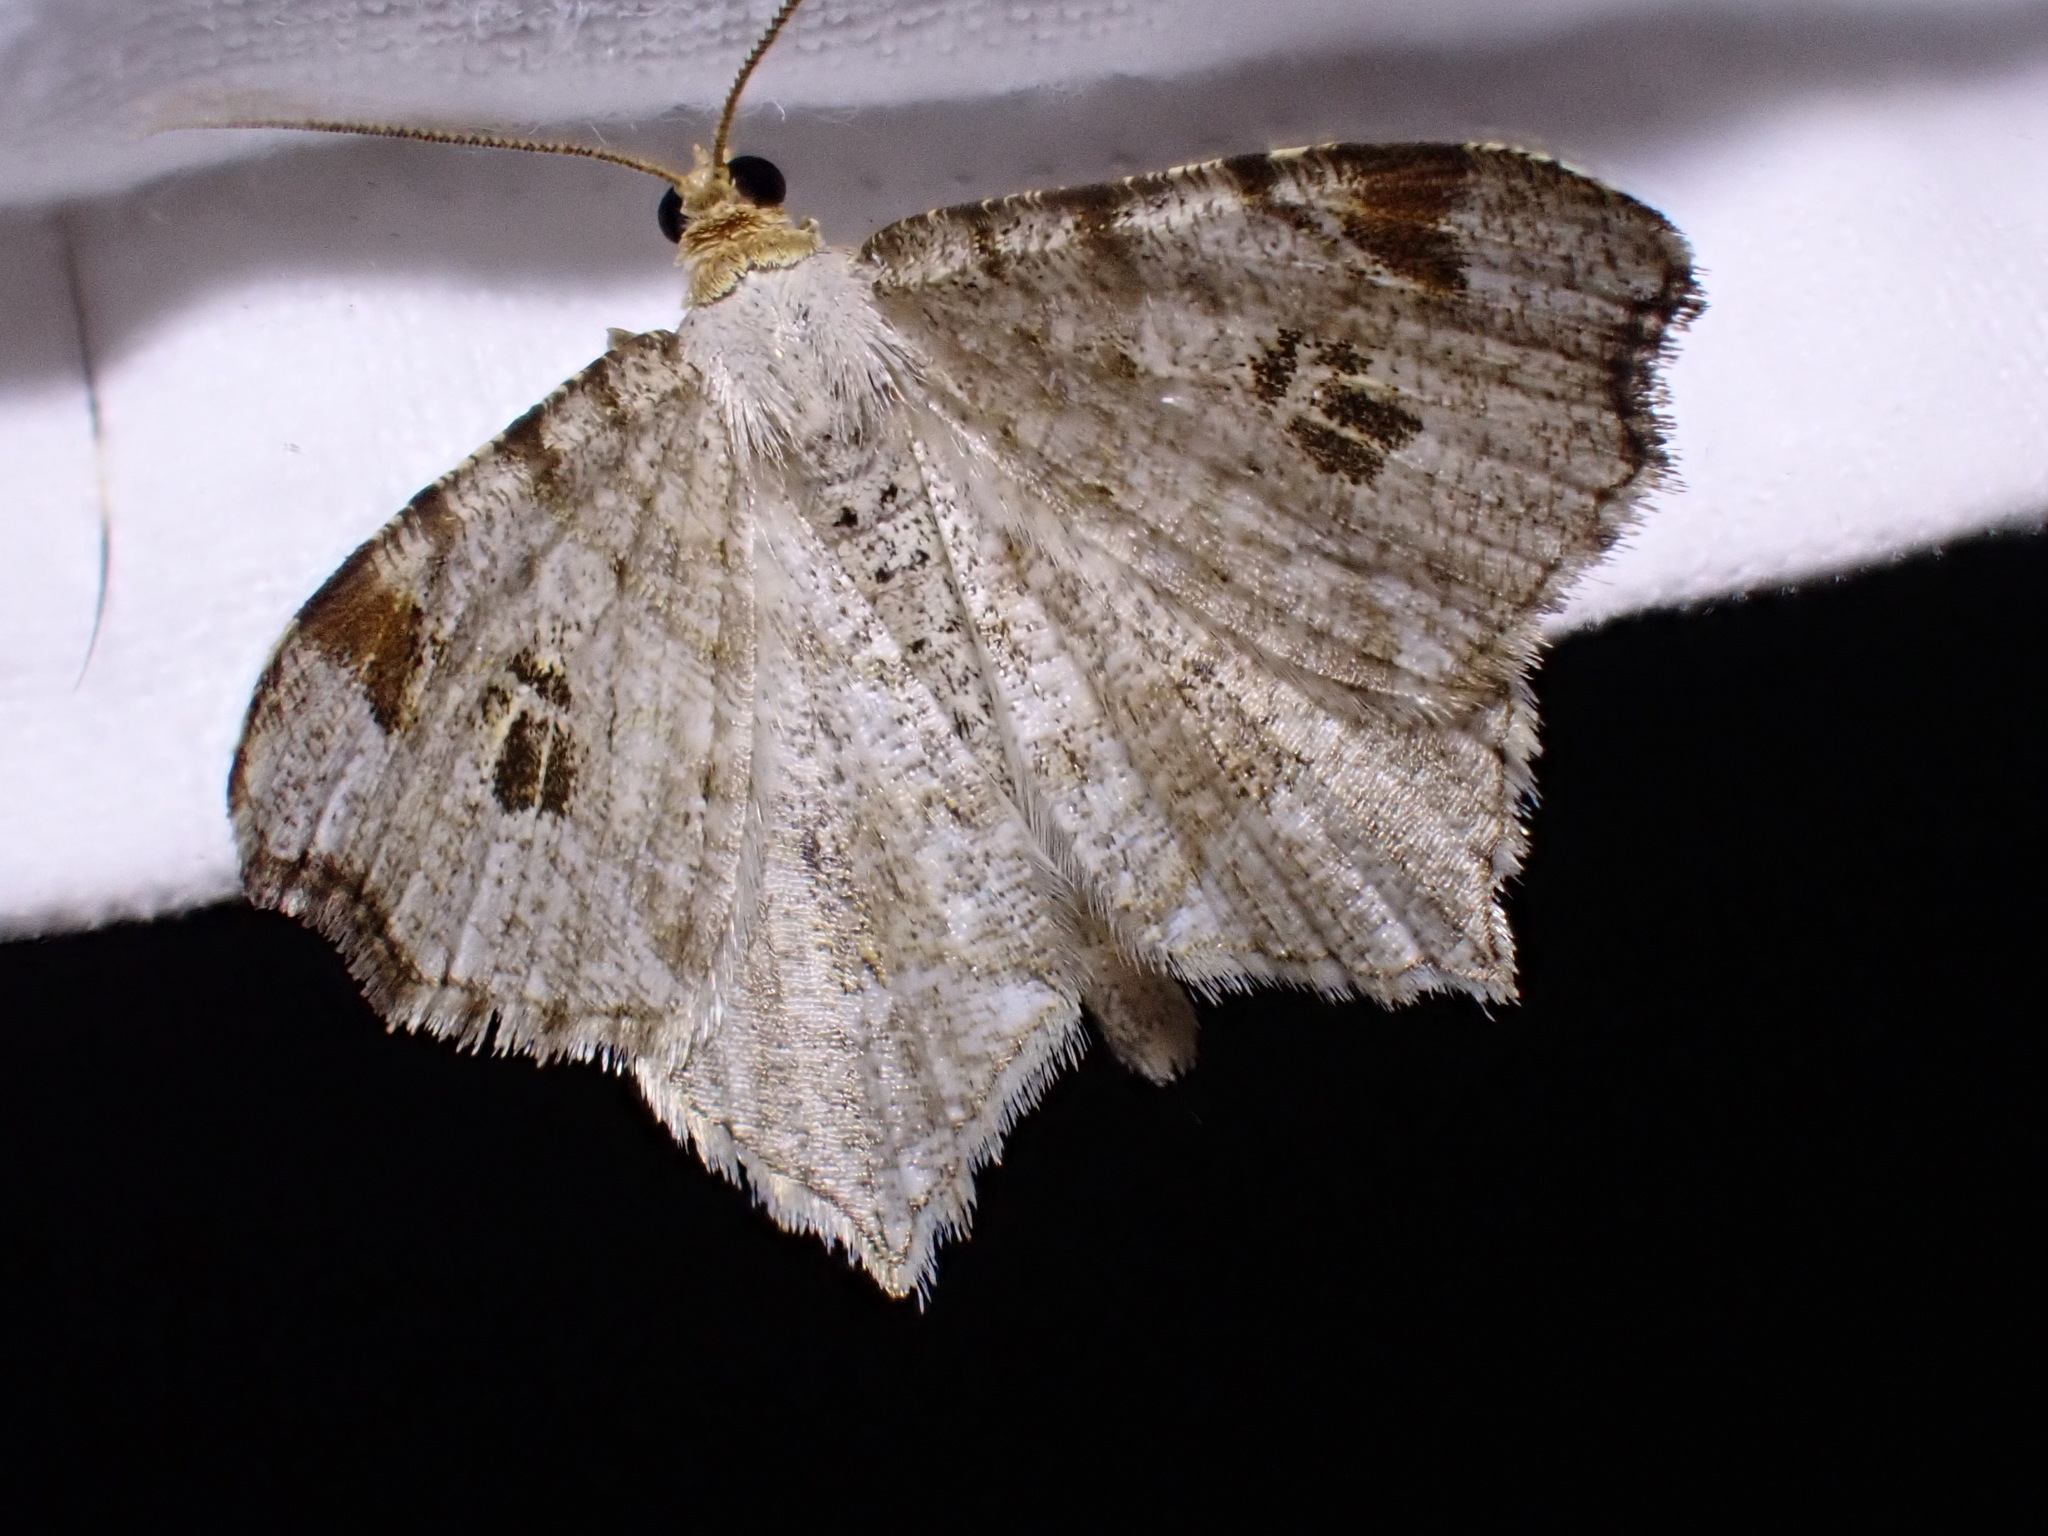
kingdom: Animalia
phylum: Arthropoda
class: Insecta
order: Lepidoptera
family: Geometridae
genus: Macaria
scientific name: Macaria notata
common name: Peacock moth
